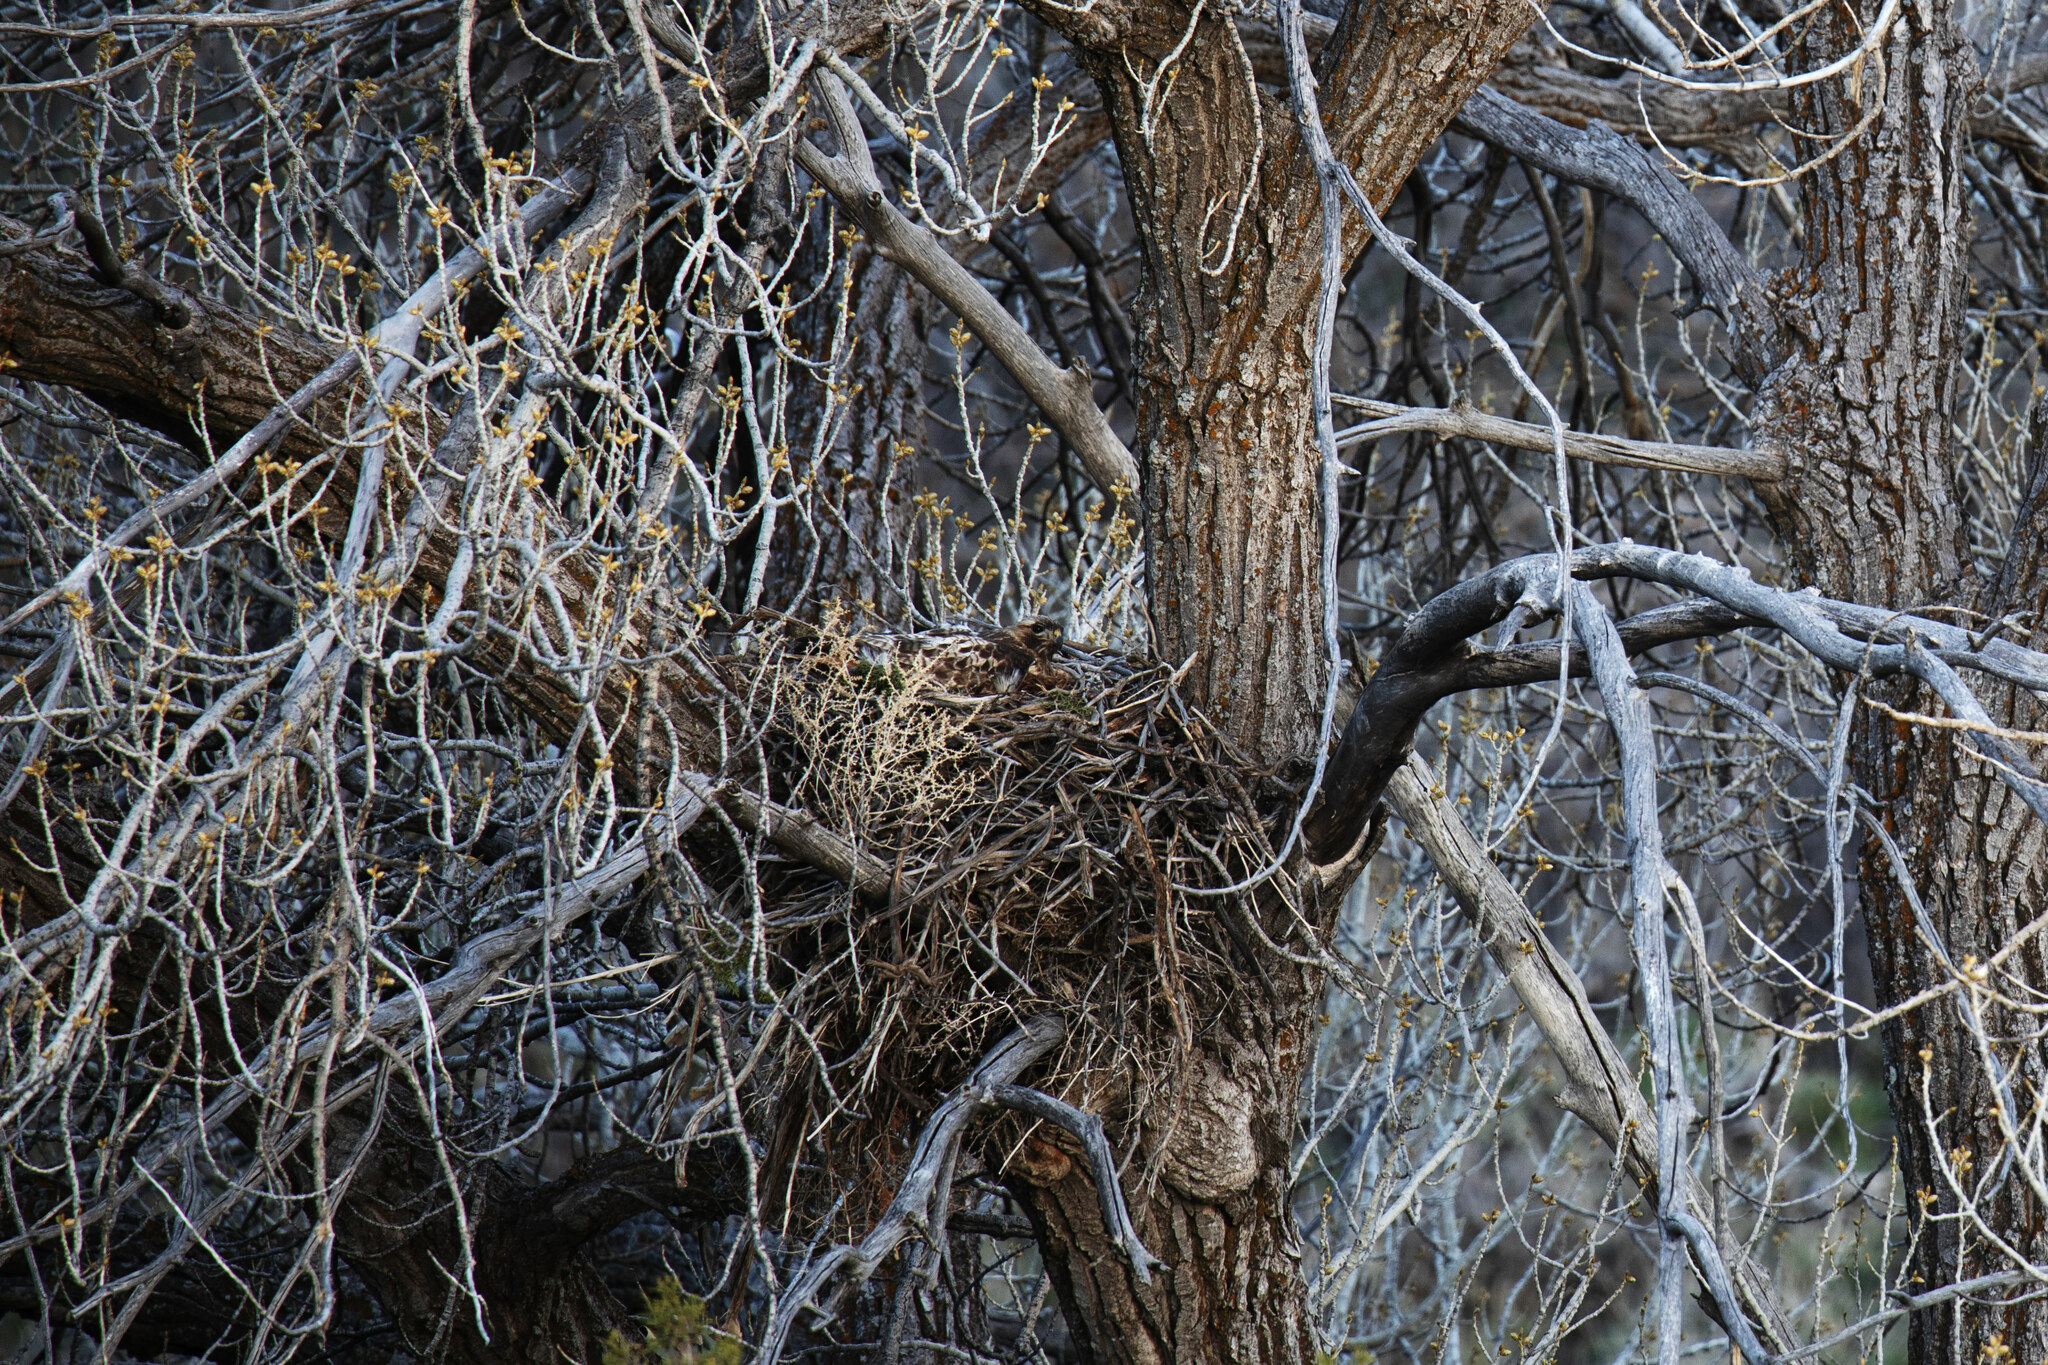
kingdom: Animalia
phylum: Chordata
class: Aves
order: Accipitriformes
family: Accipitridae
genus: Buteo
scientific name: Buteo jamaicensis
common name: Red-tailed hawk
